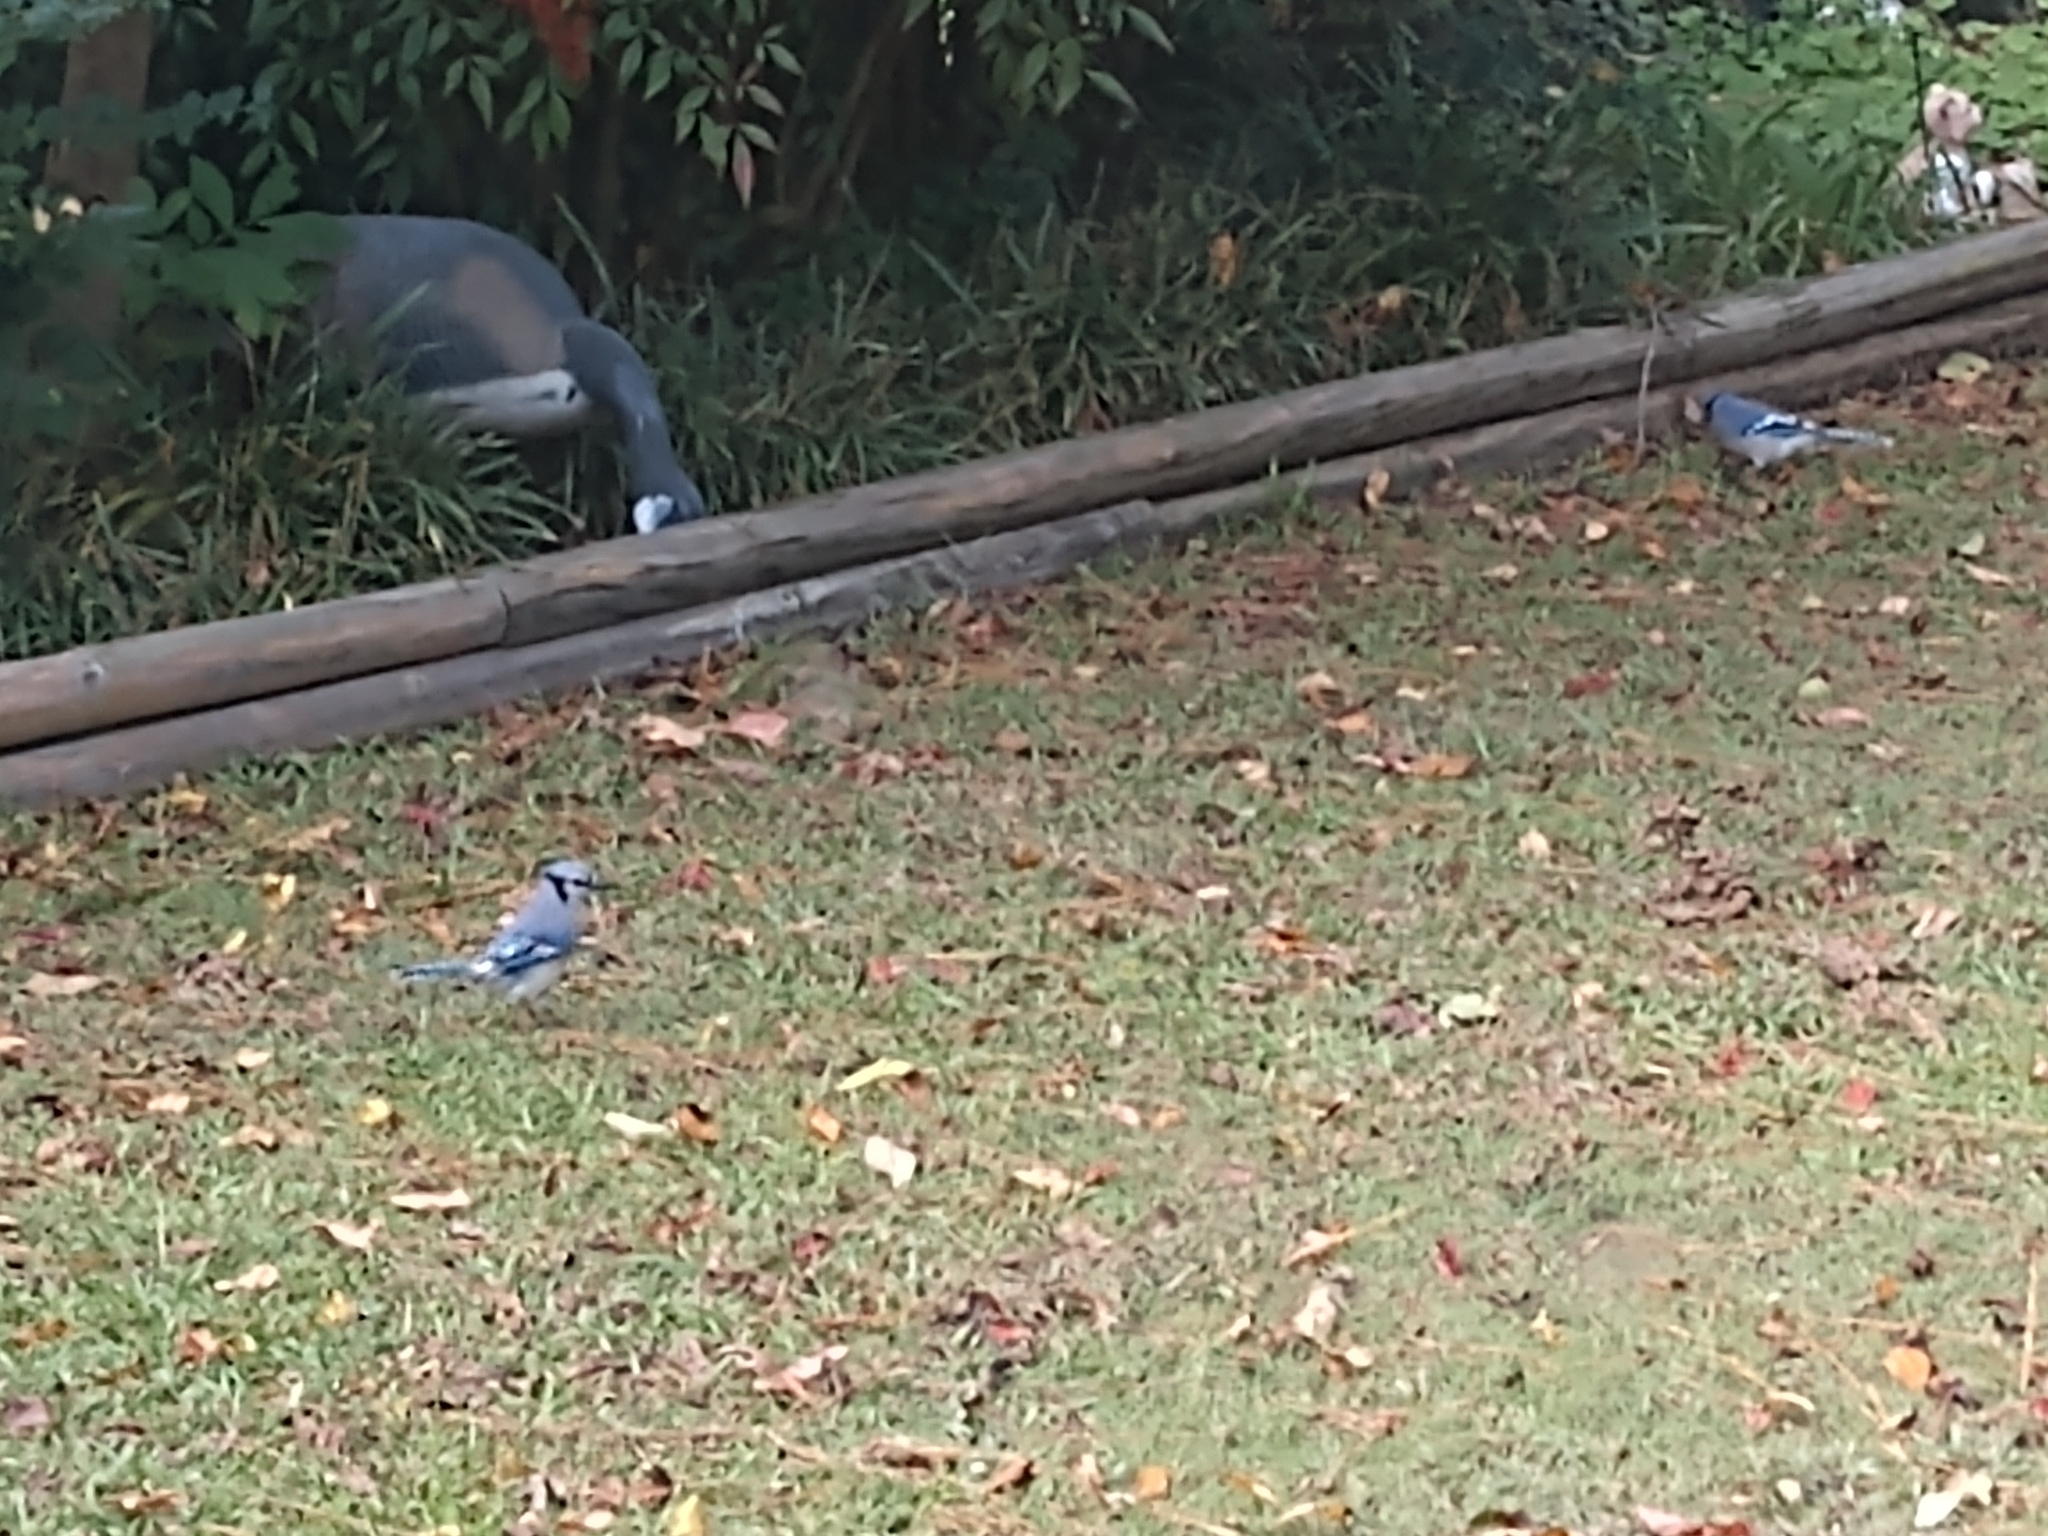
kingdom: Animalia
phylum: Chordata
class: Aves
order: Passeriformes
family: Corvidae
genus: Cyanocitta
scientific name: Cyanocitta cristata
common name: Blue jay
